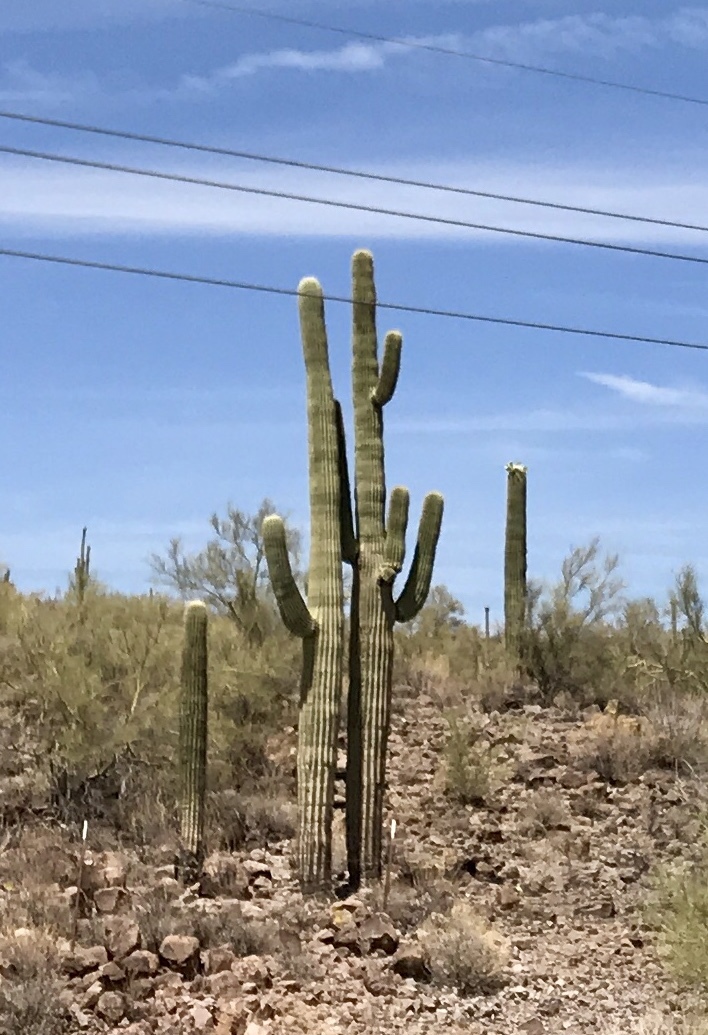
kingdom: Plantae
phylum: Tracheophyta
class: Magnoliopsida
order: Caryophyllales
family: Cactaceae
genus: Carnegiea
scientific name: Carnegiea gigantea
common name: Saguaro
